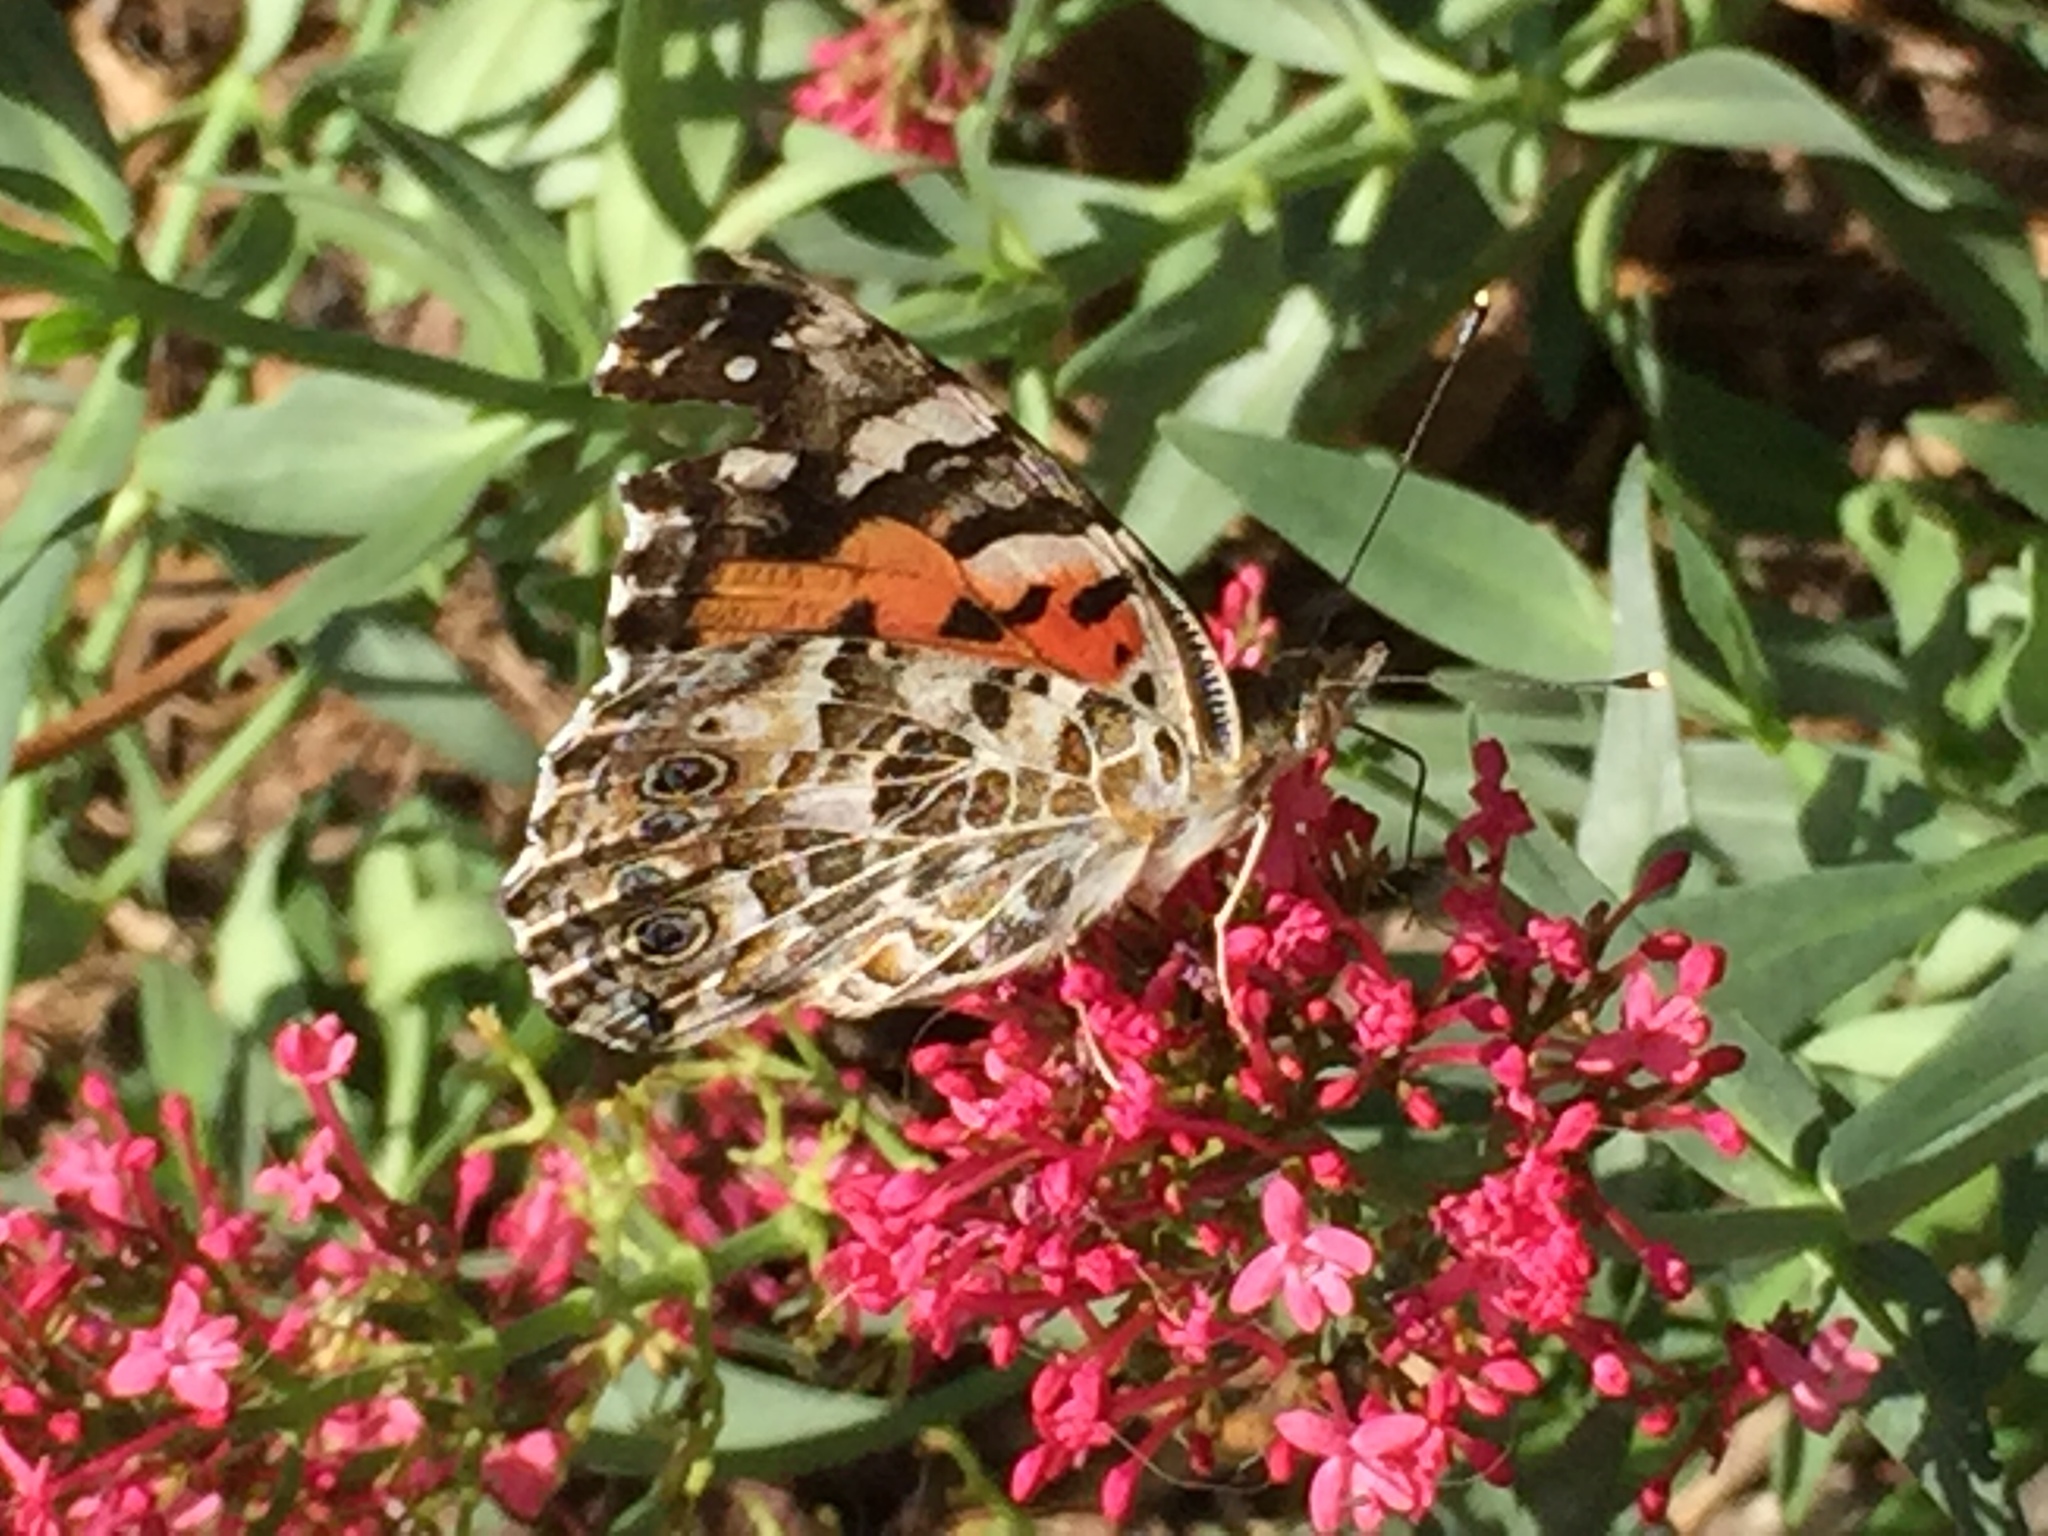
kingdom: Animalia
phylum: Arthropoda
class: Insecta
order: Lepidoptera
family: Nymphalidae
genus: Vanessa
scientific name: Vanessa cardui
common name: Painted lady
